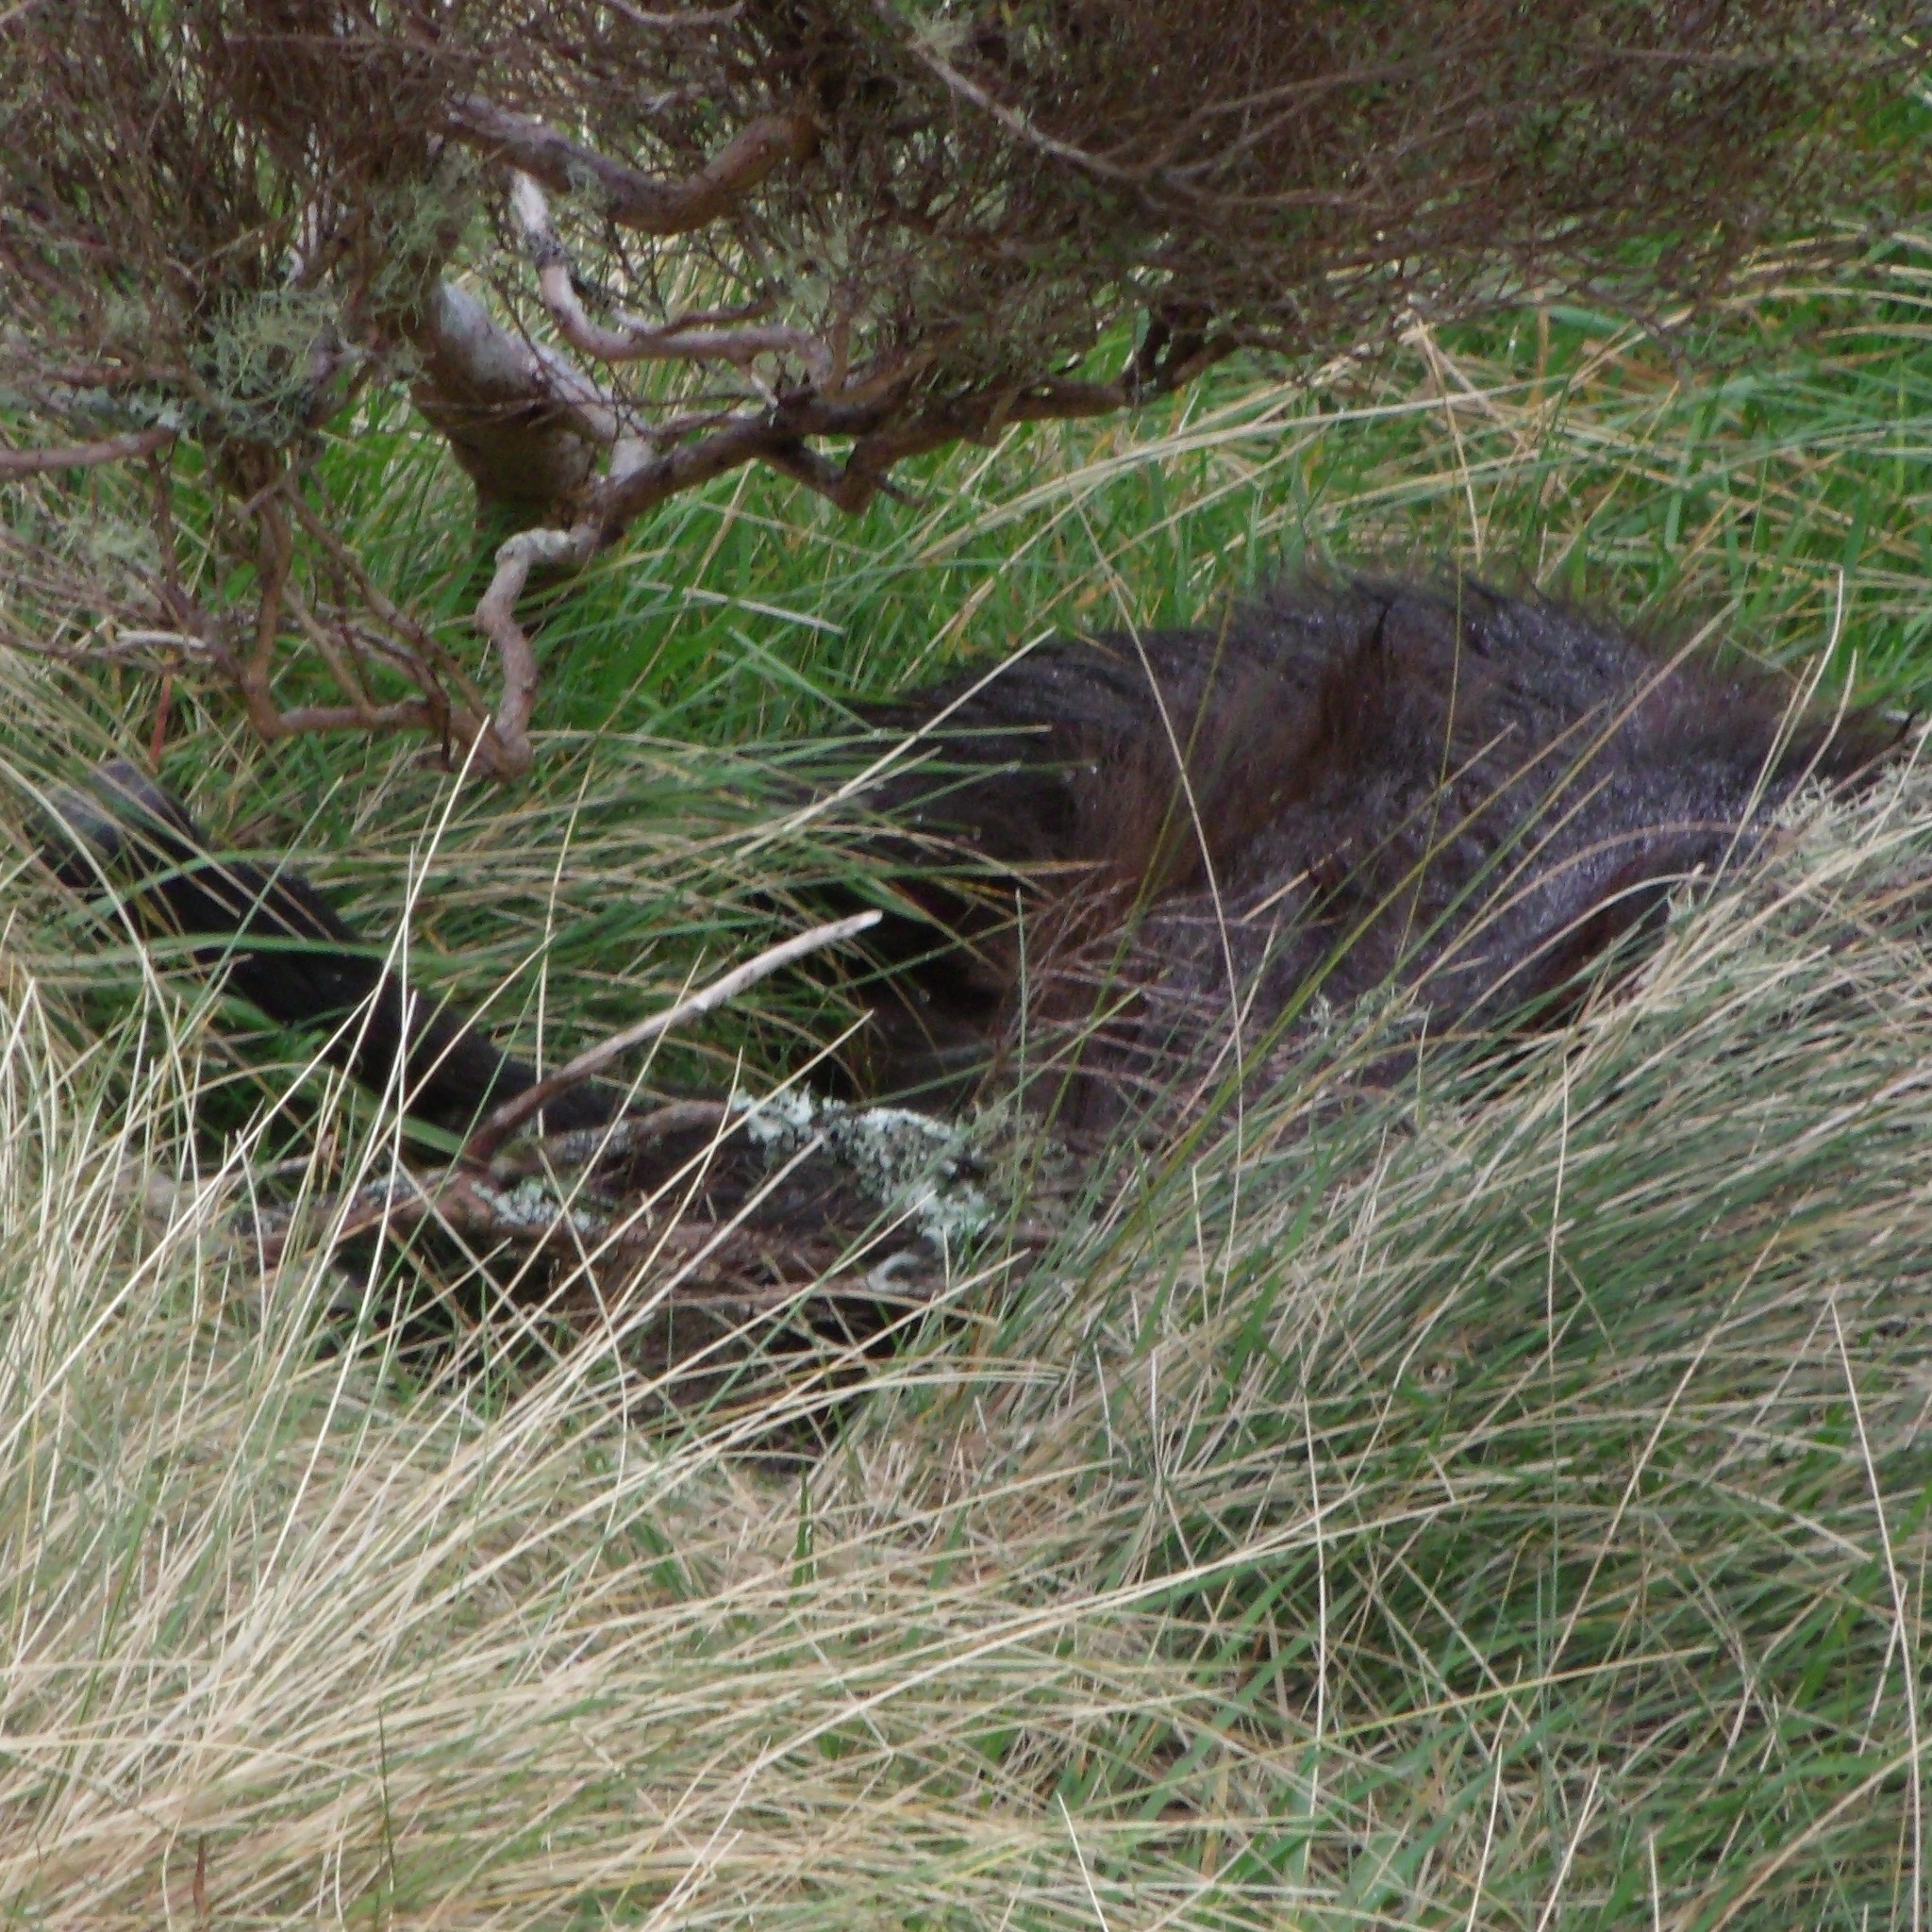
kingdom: Animalia
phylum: Chordata
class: Mammalia
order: Artiodactyla
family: Bovidae
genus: Capra
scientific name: Capra hircus
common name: Domestic goat
